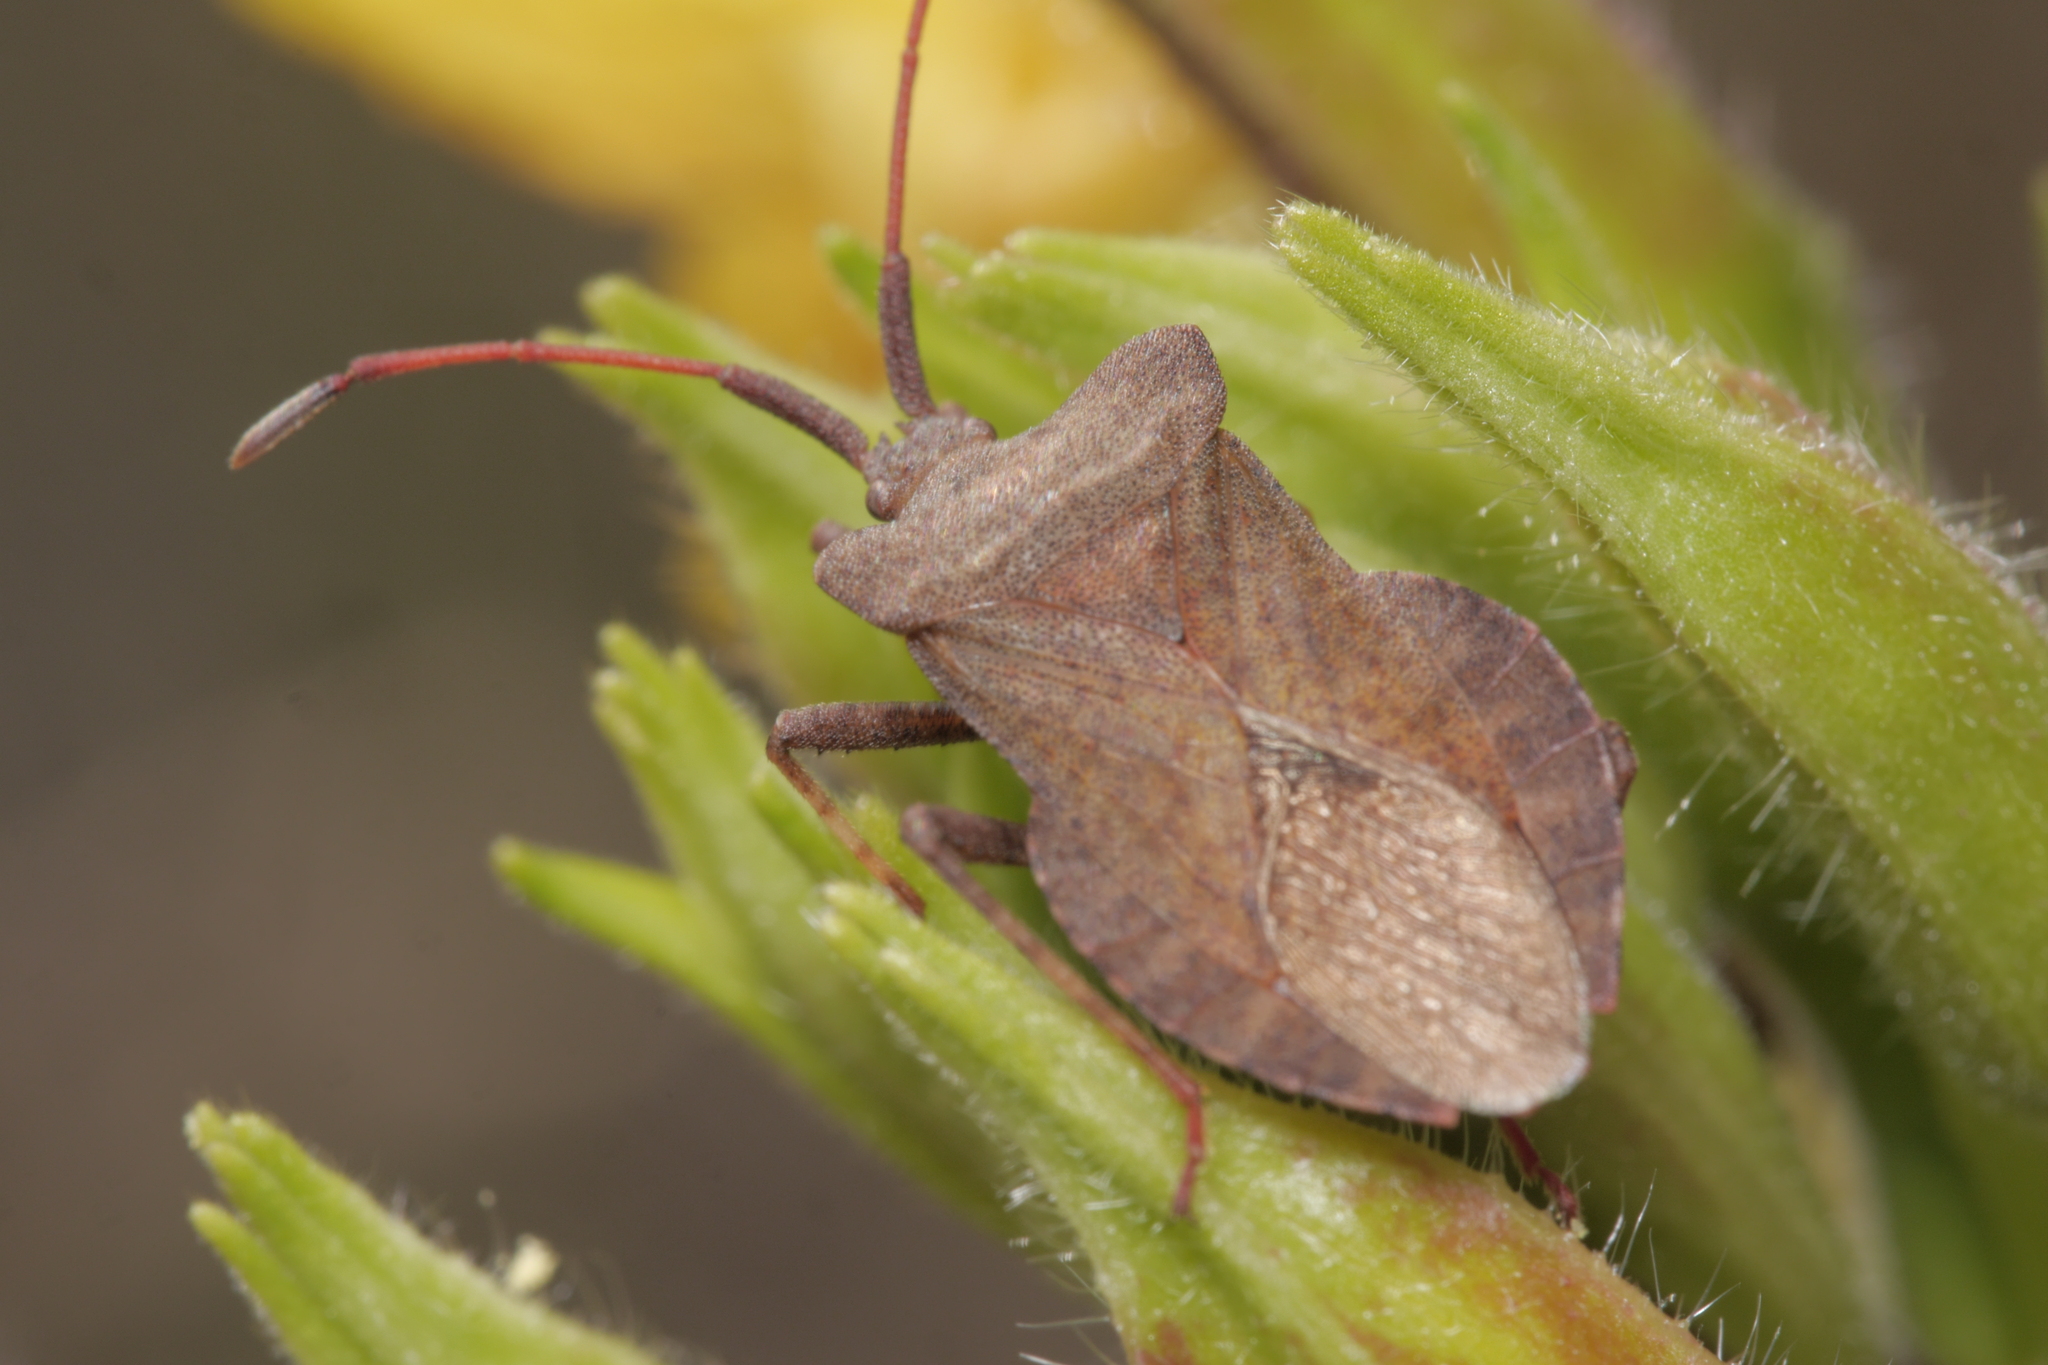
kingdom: Animalia
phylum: Arthropoda
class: Insecta
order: Hemiptera
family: Coreidae
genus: Coreus
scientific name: Coreus marginatus
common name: Dock bug
